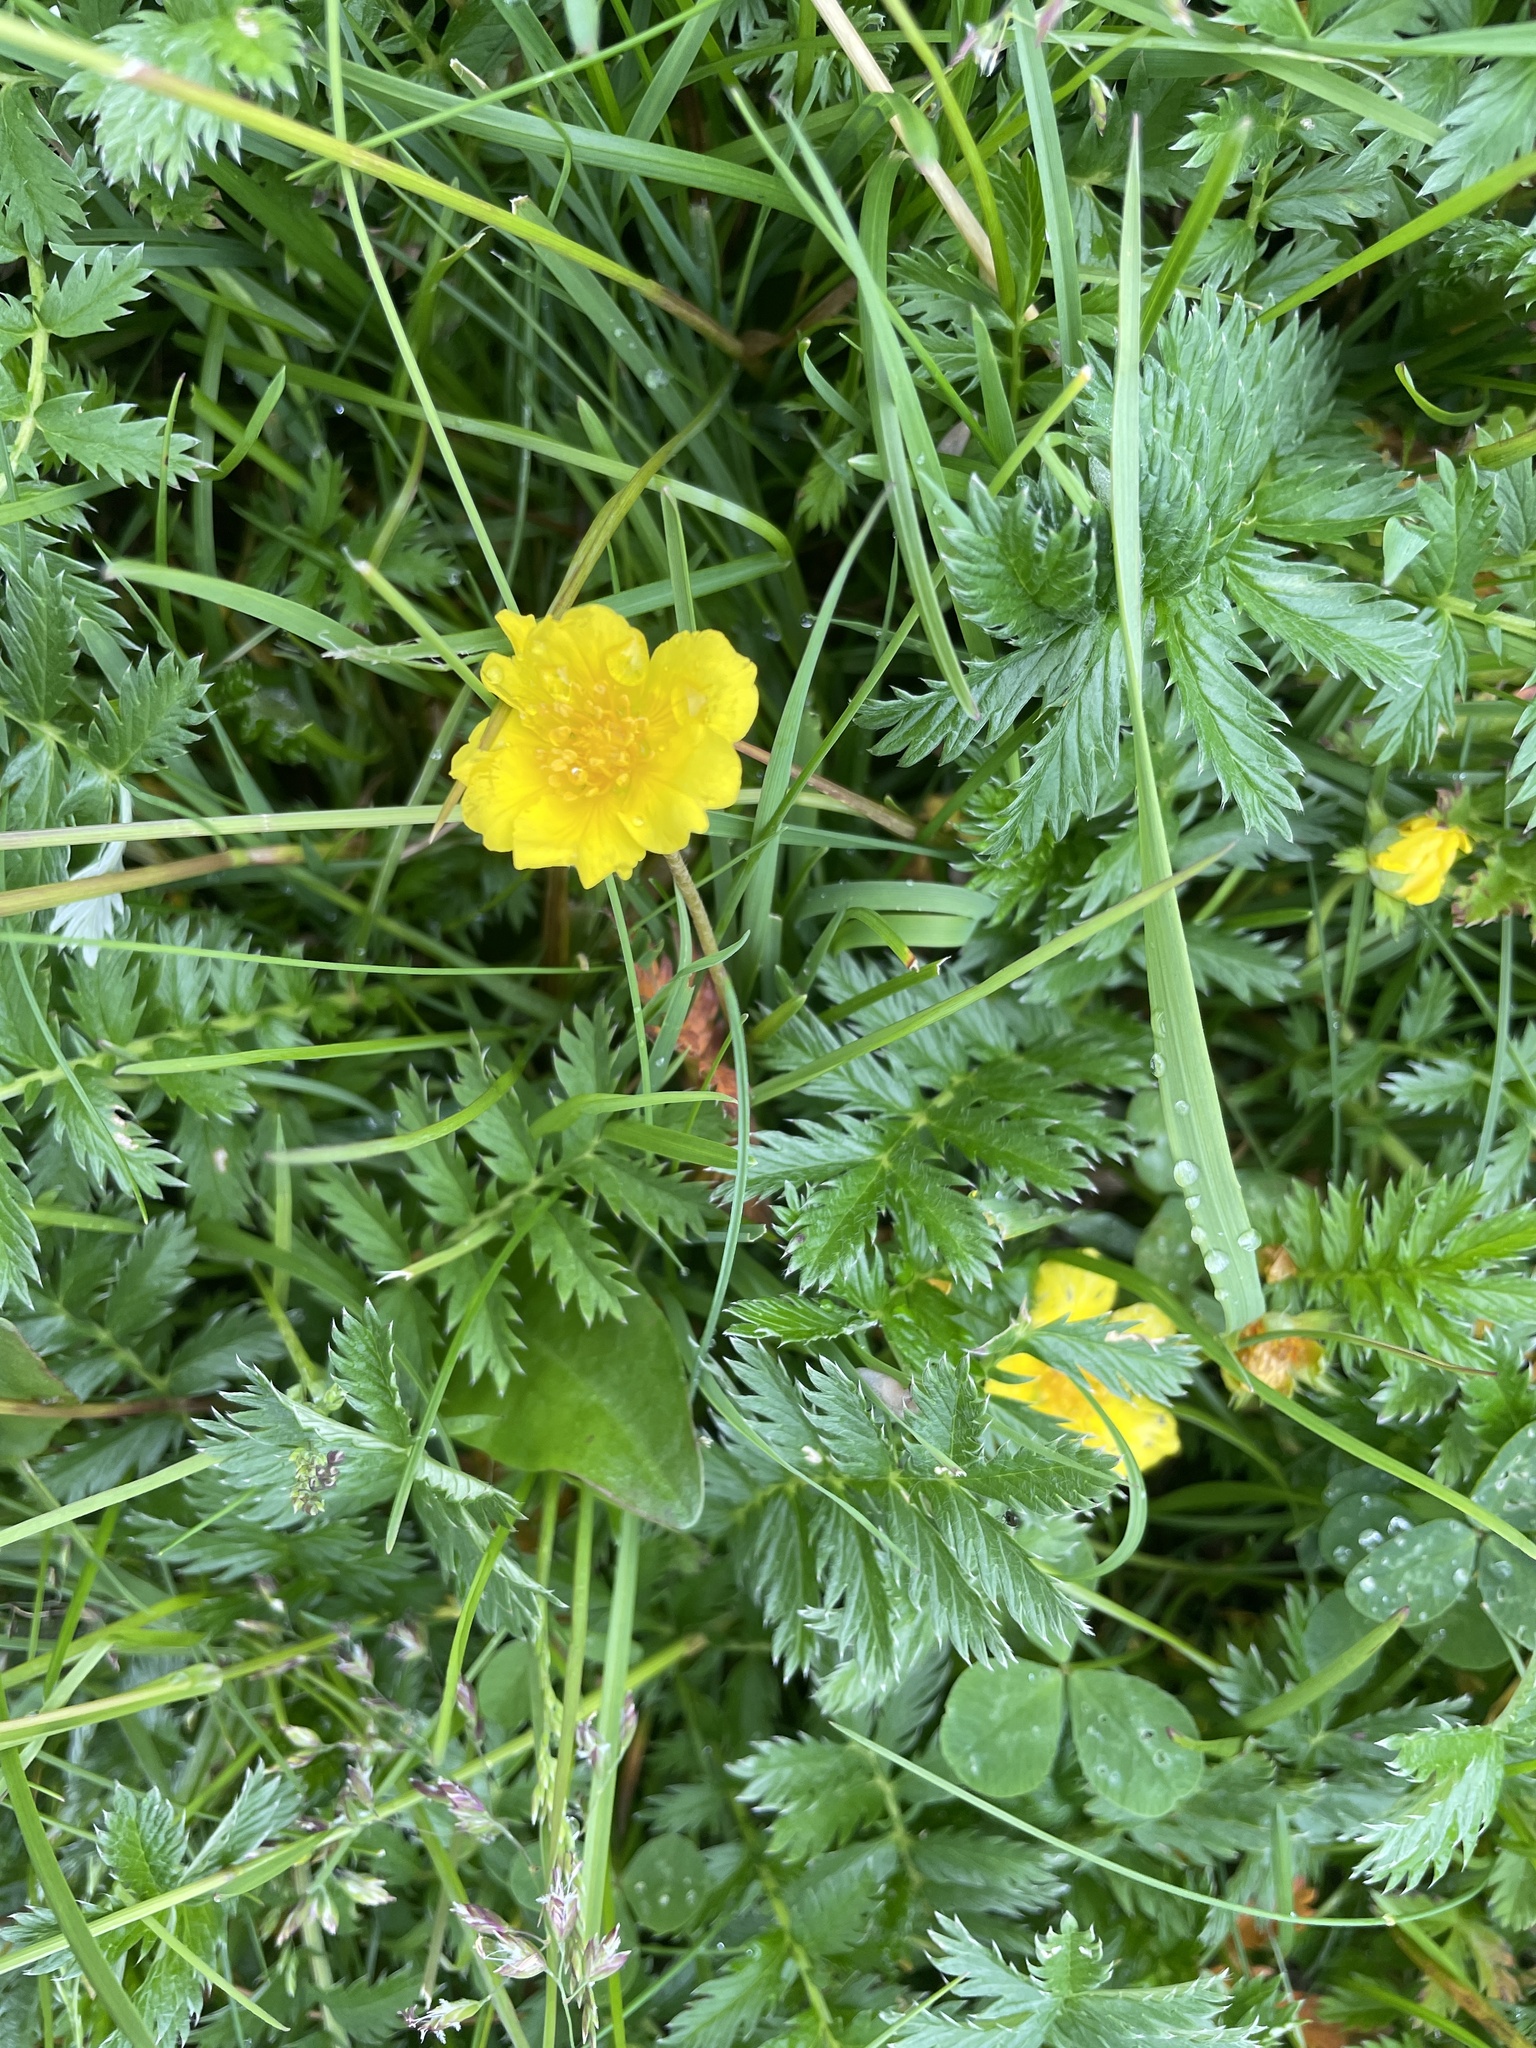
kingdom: Plantae
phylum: Tracheophyta
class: Magnoliopsida
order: Rosales
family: Rosaceae
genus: Argentina
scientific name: Argentina anserina
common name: Common silverweed
